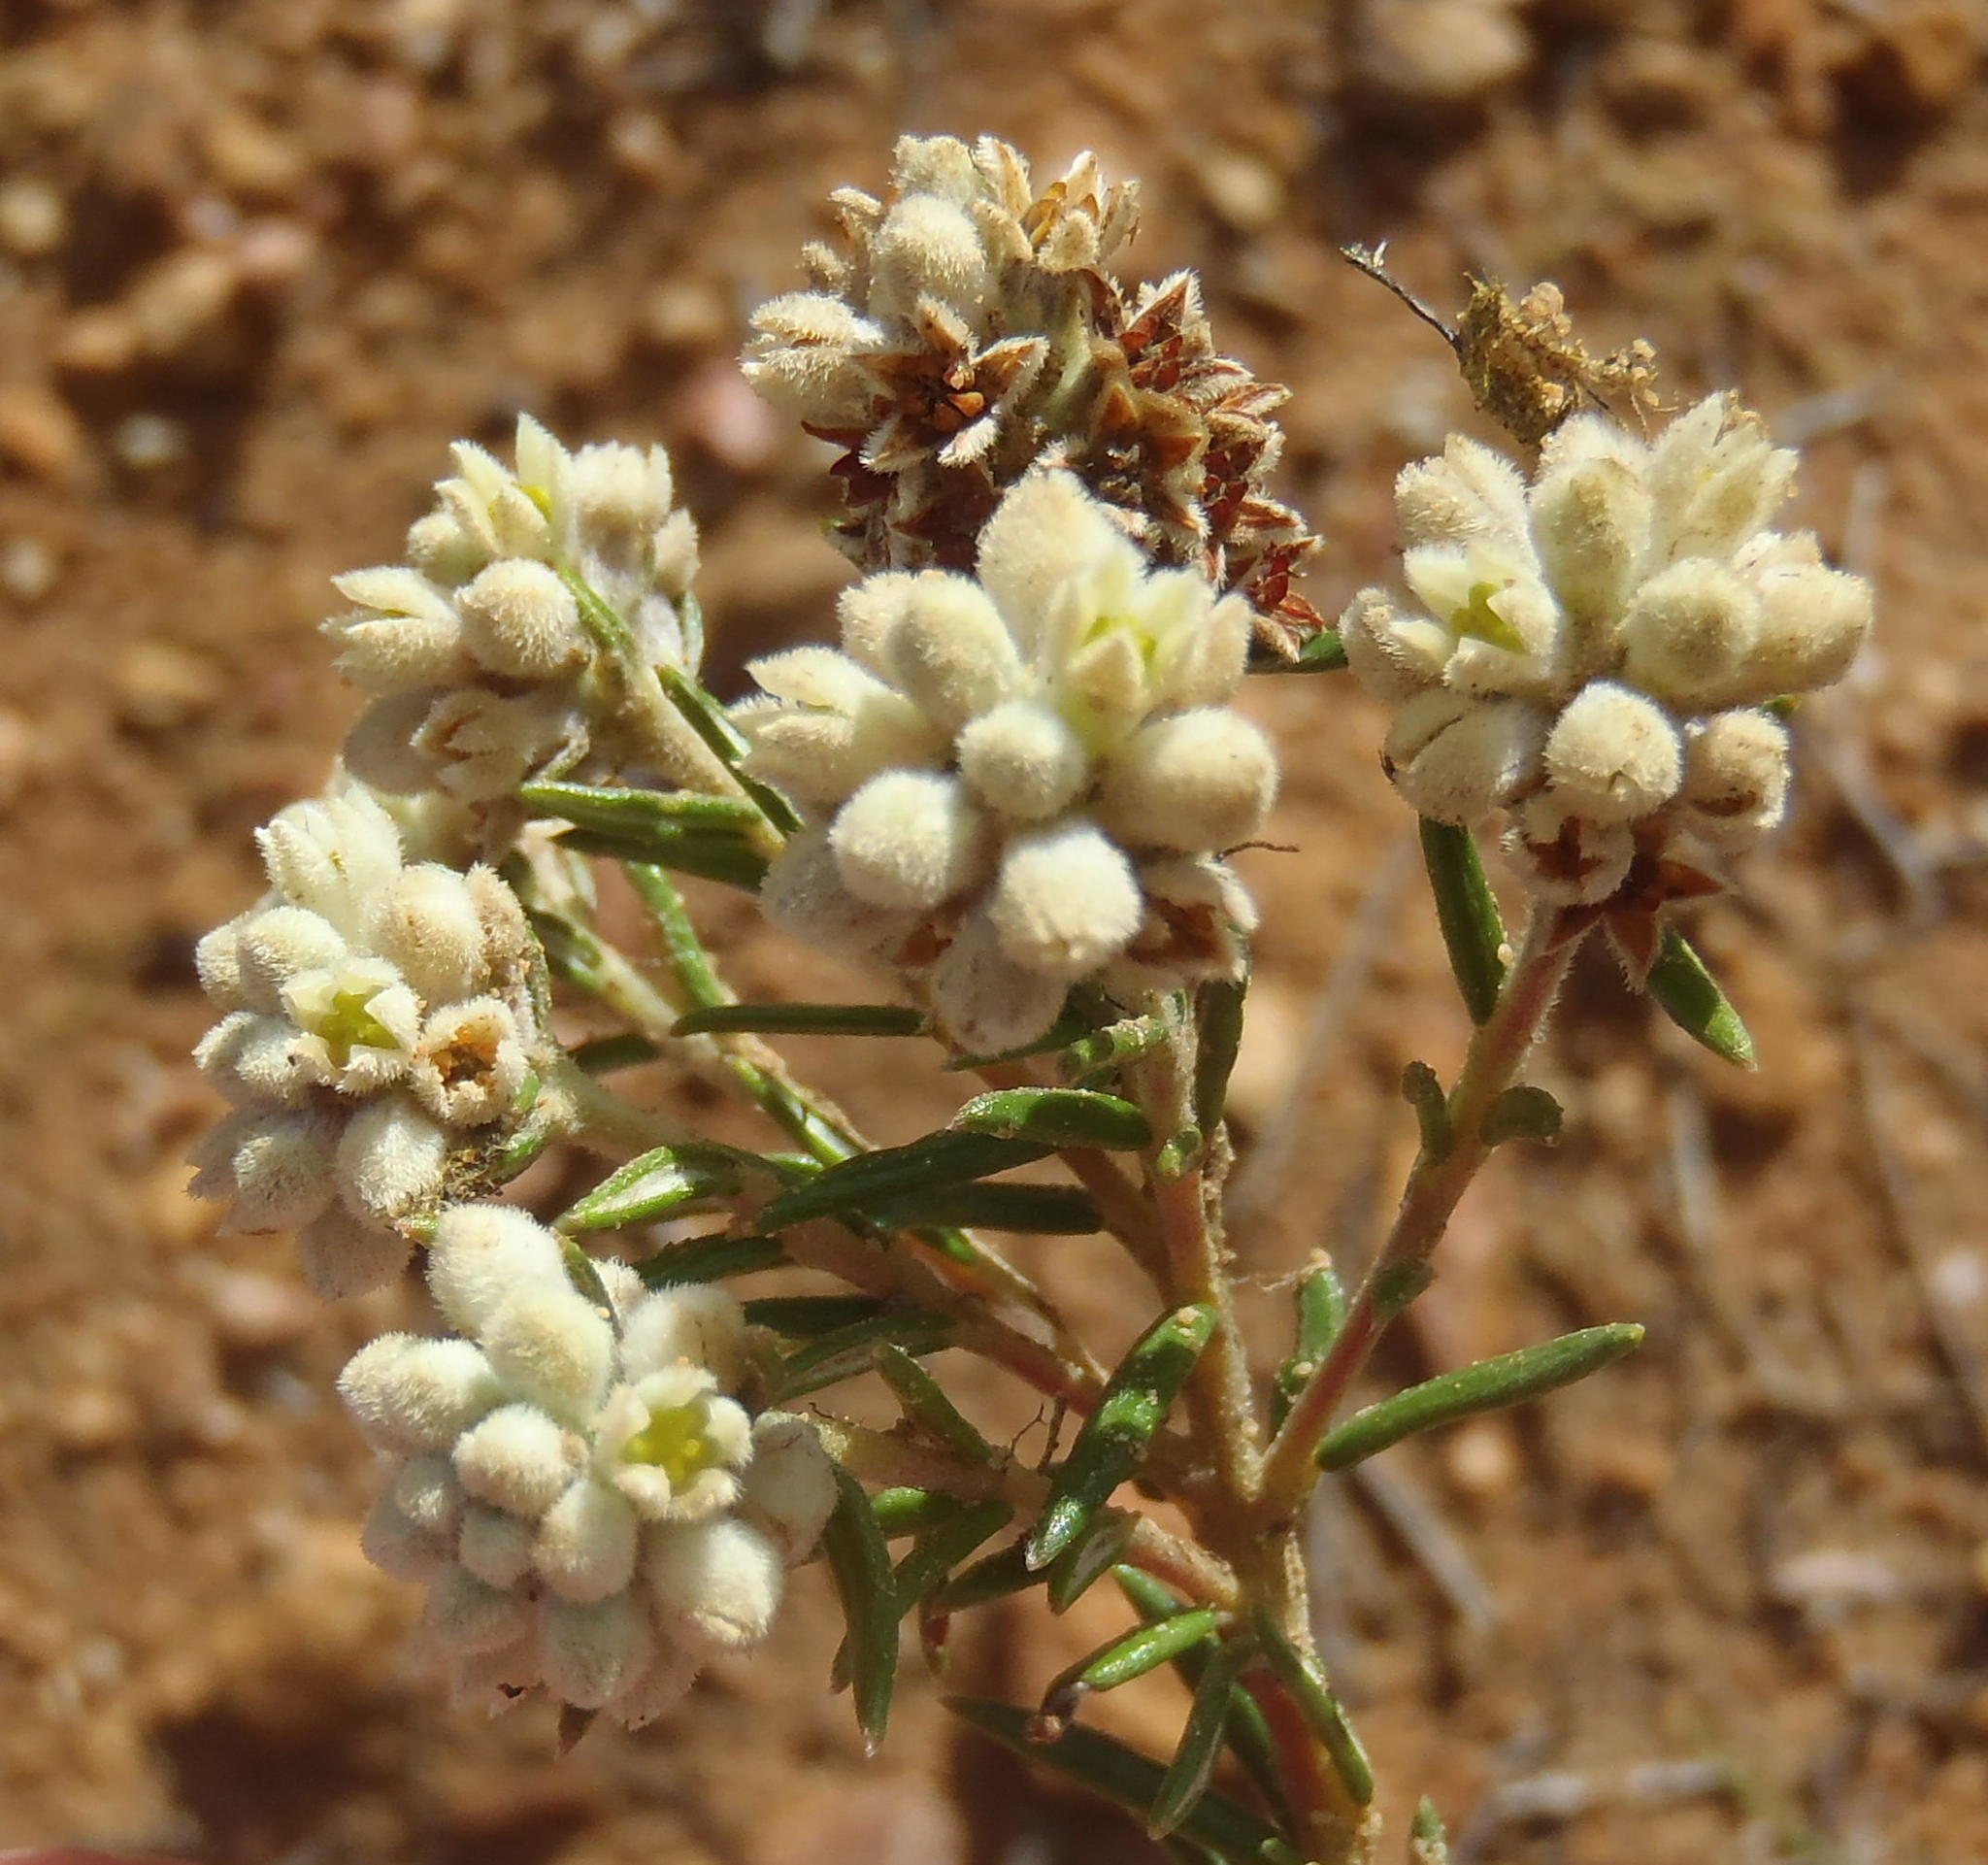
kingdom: Plantae
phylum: Tracheophyta
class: Magnoliopsida
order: Rosales
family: Rhamnaceae
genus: Phylica
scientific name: Phylica imberbis
